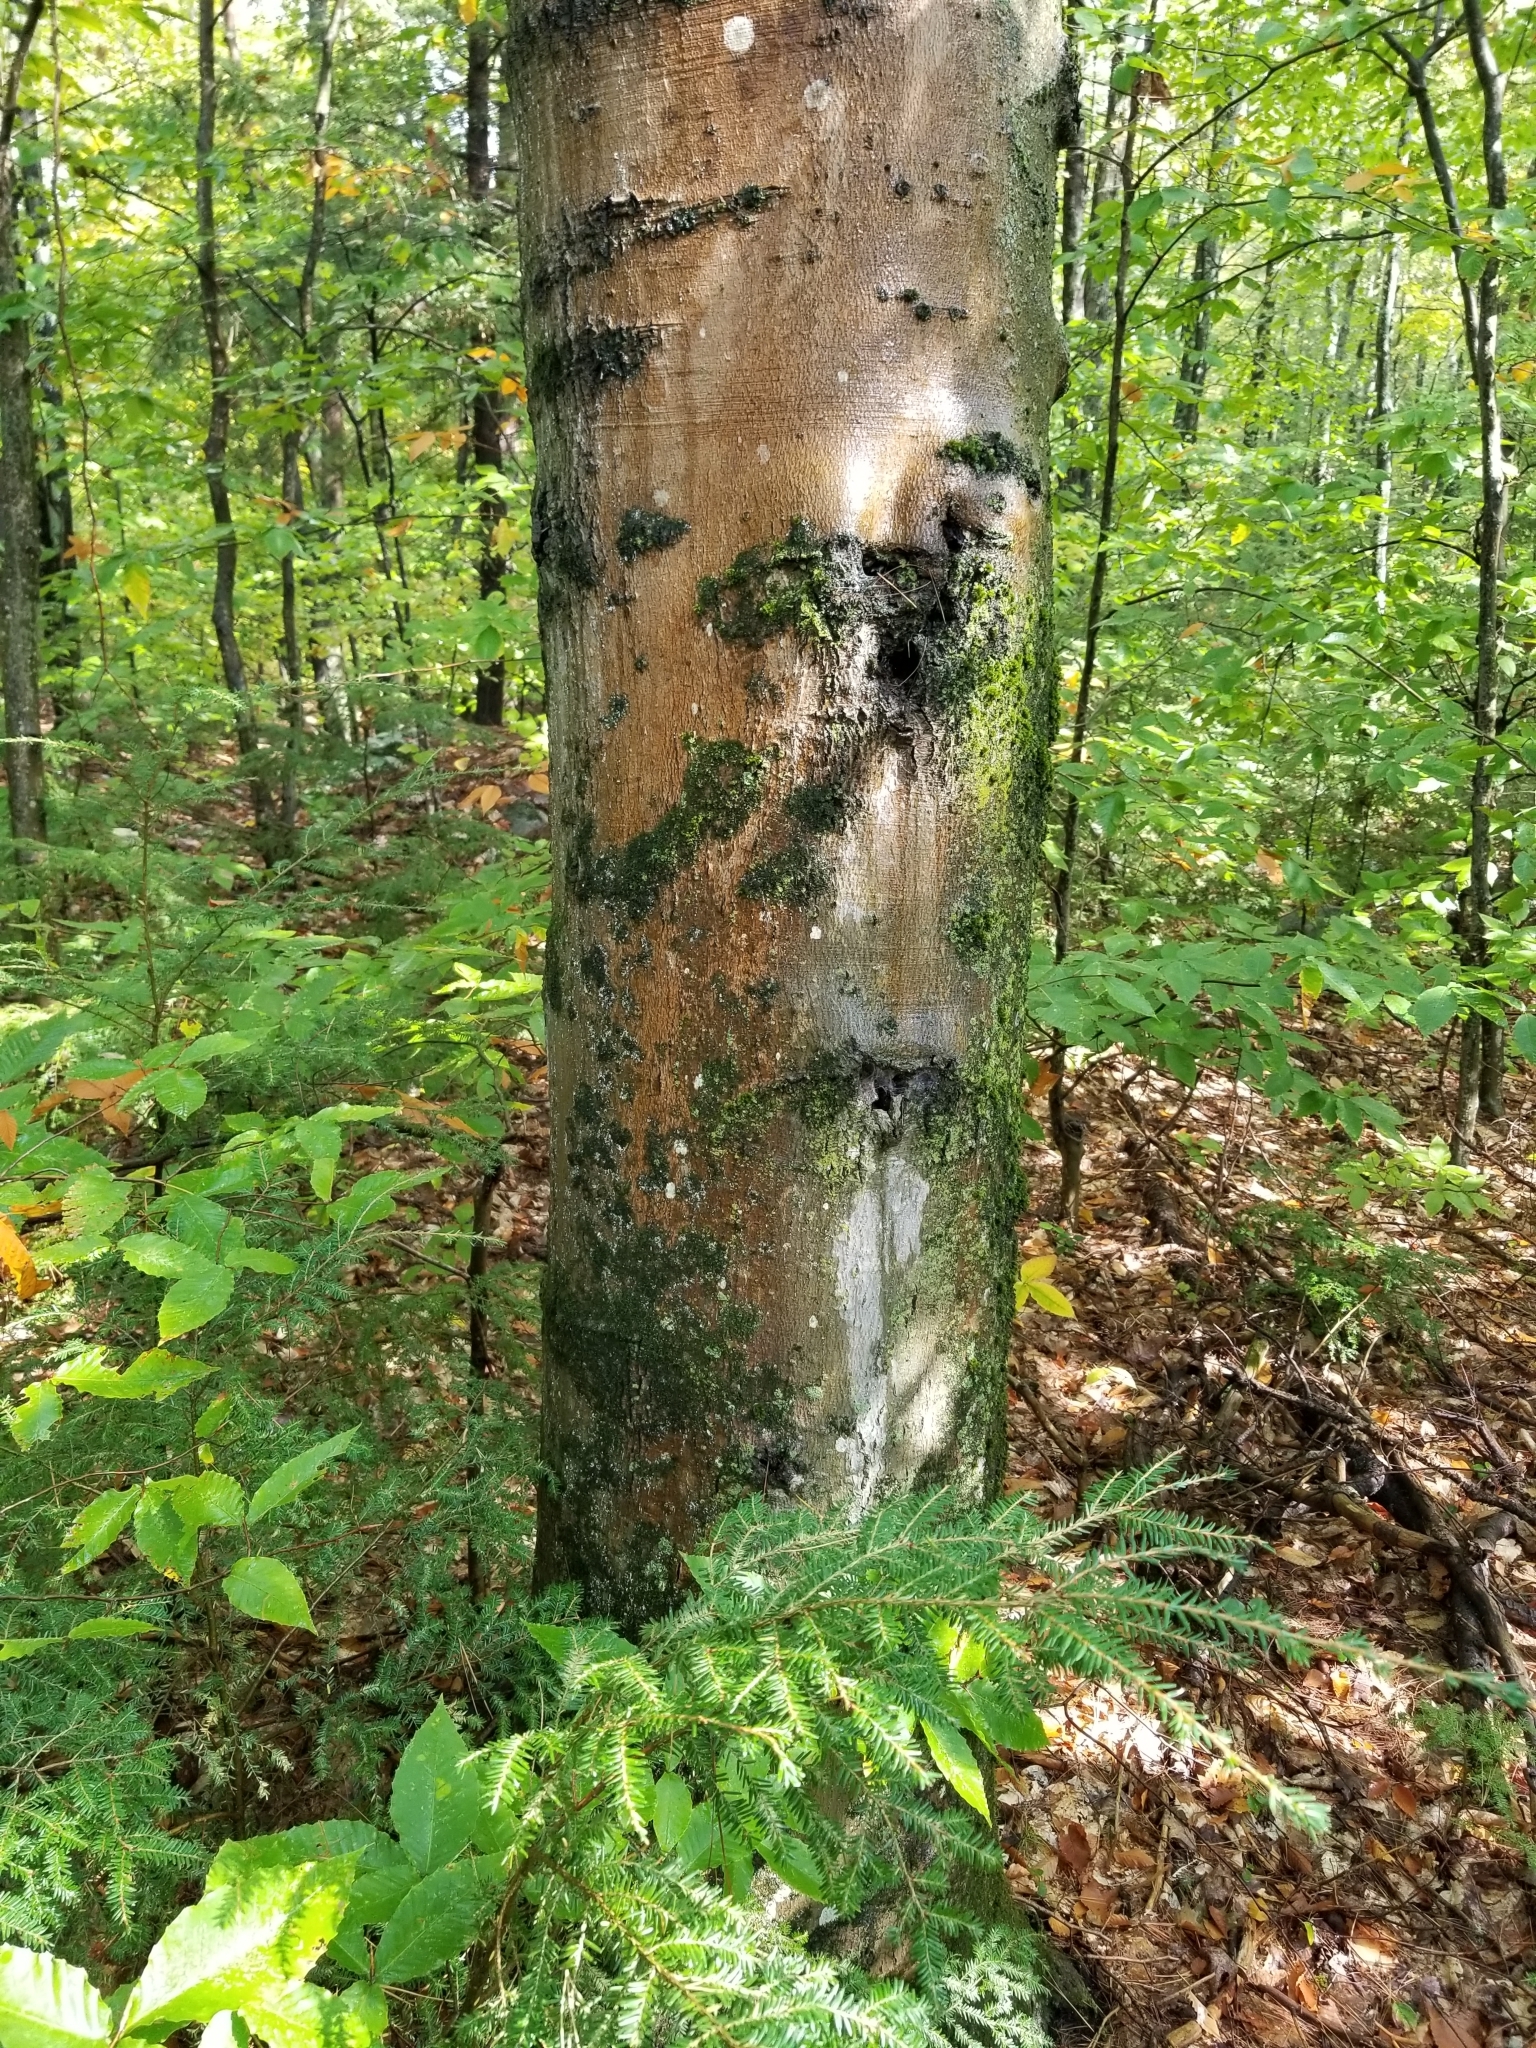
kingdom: Plantae
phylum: Tracheophyta
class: Magnoliopsida
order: Fagales
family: Fagaceae
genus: Fagus
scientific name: Fagus grandifolia
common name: American beech
